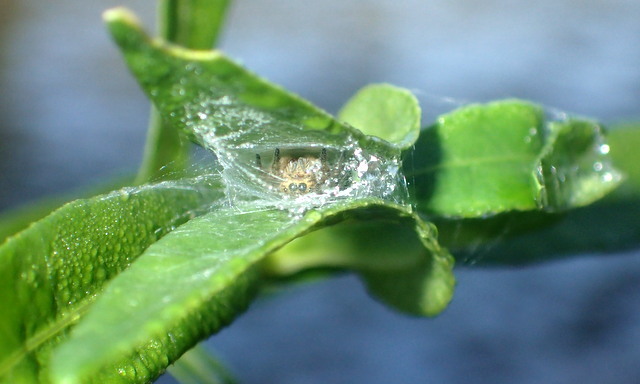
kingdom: Animalia
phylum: Arthropoda
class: Arachnida
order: Araneae
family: Salticidae
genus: Eris
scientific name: Eris floridana
